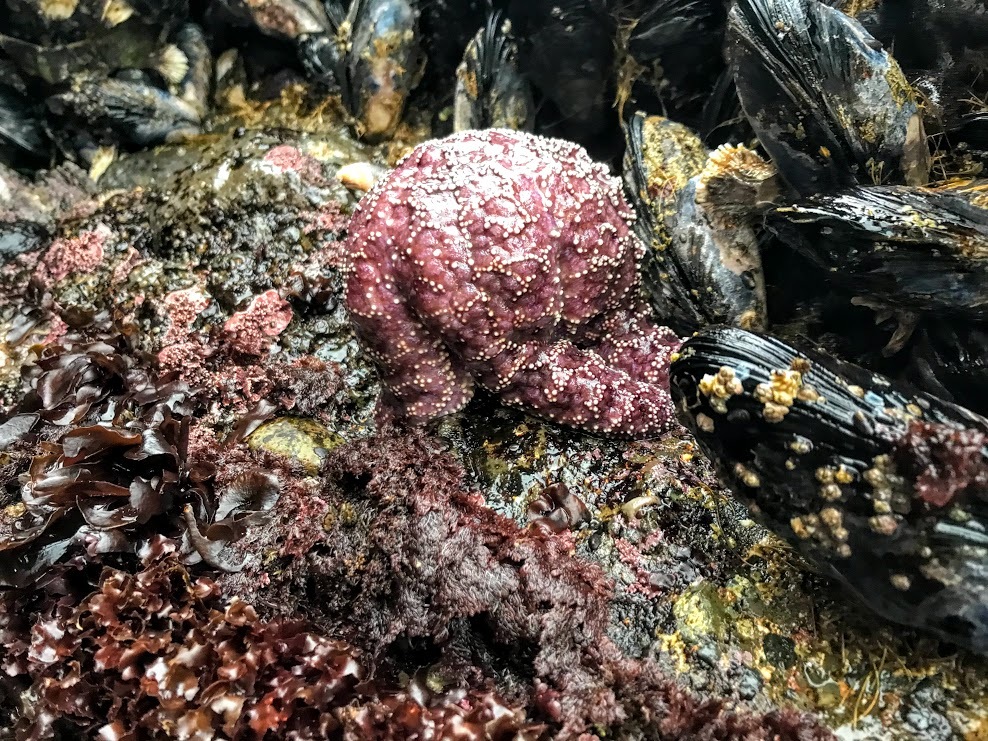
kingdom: Animalia
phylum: Echinodermata
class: Asteroidea
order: Forcipulatida
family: Asteriidae
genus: Pisaster
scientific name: Pisaster ochraceus
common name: Ochre stars
